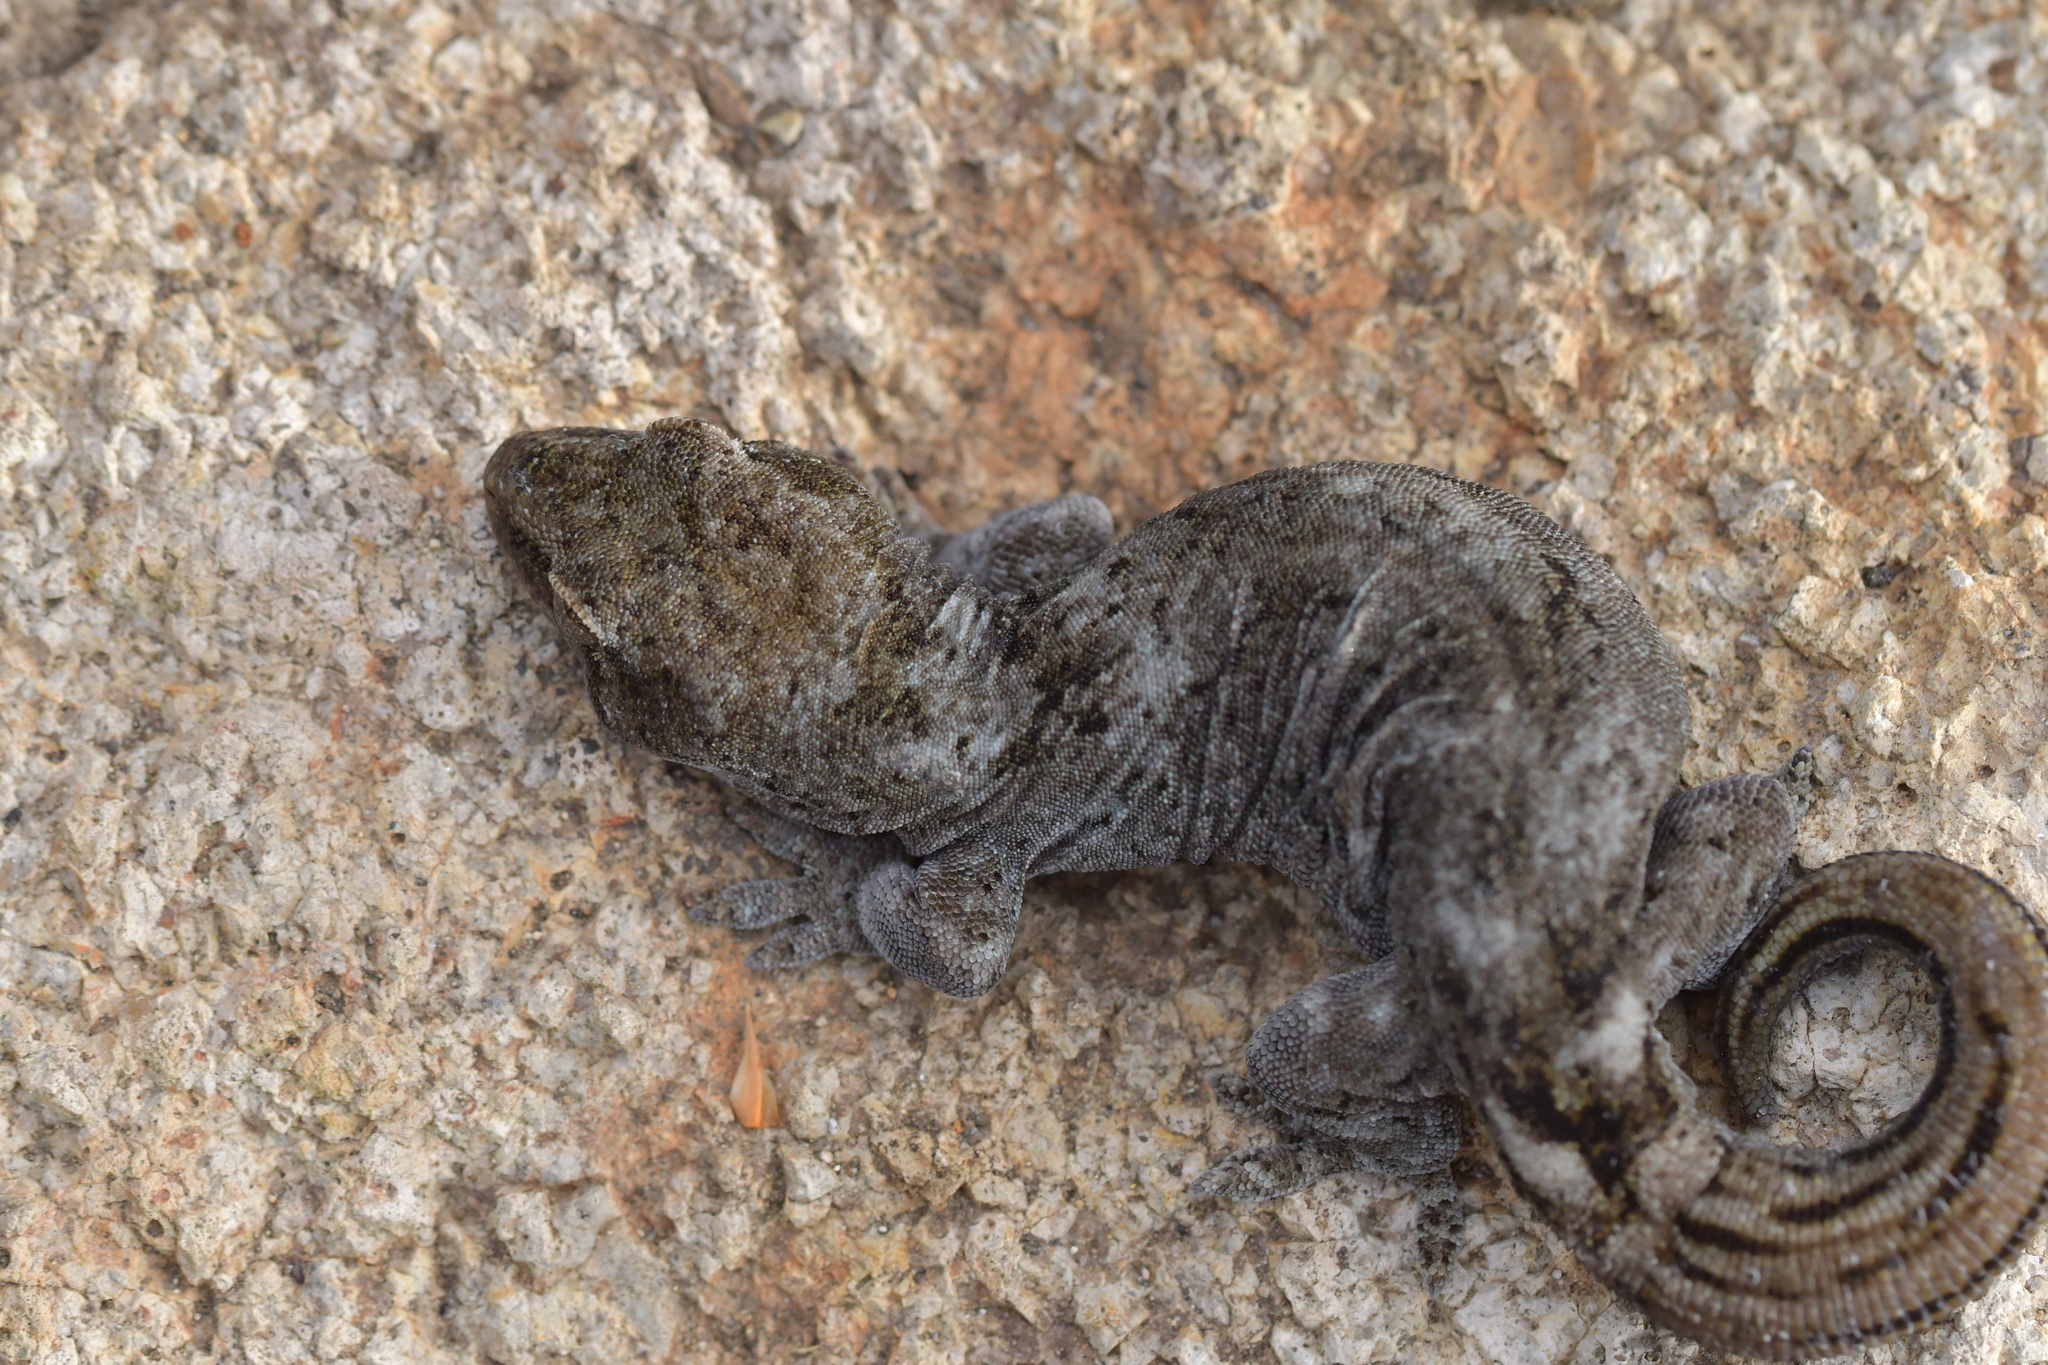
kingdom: Animalia
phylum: Chordata
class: Squamata
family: Diplodactylidae
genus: Woodworthia
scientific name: Woodworthia
